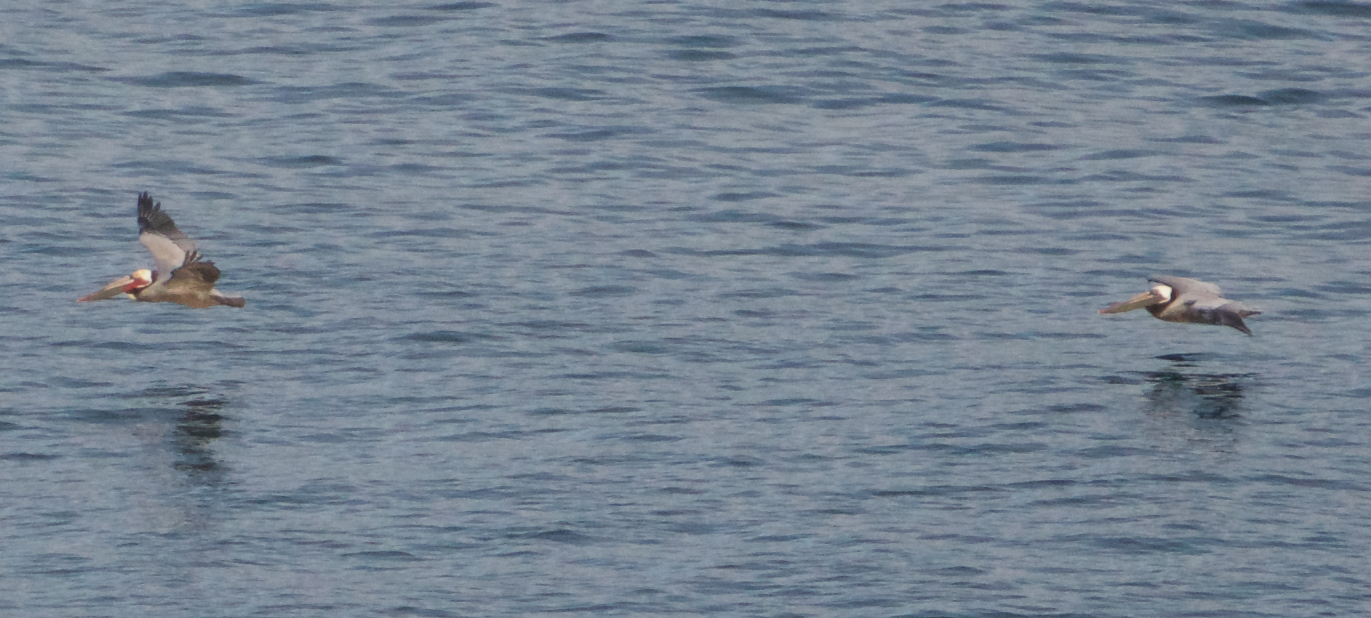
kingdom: Animalia
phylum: Chordata
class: Aves
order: Pelecaniformes
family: Pelecanidae
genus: Pelecanus
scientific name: Pelecanus occidentalis
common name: Brown pelican
